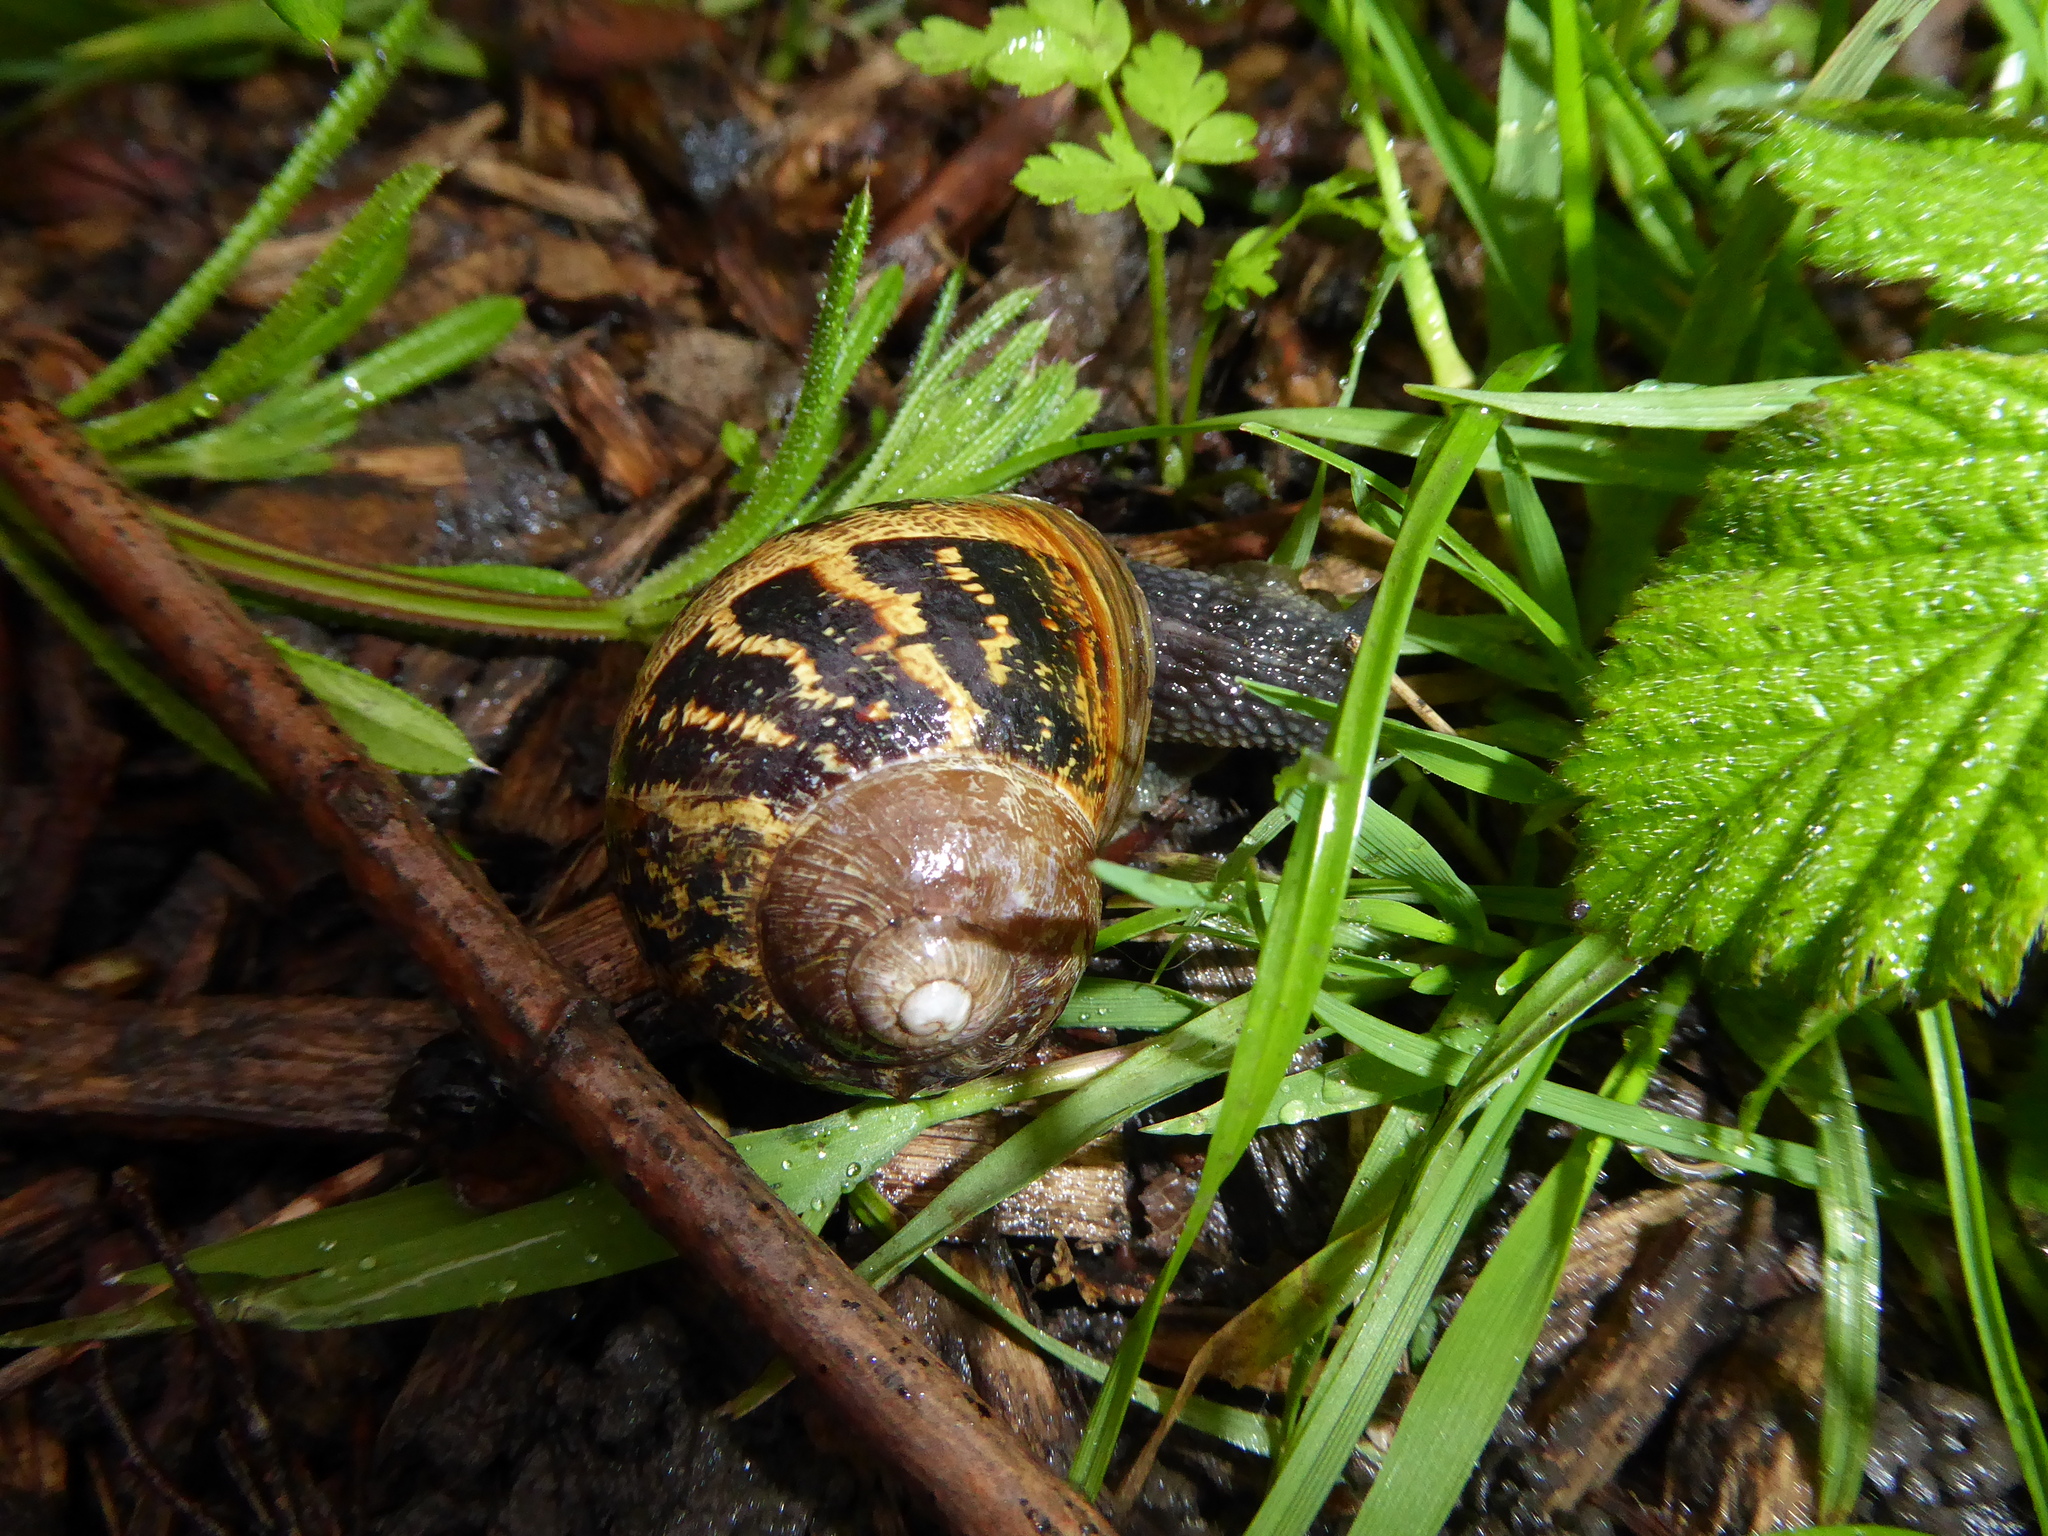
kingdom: Animalia
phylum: Mollusca
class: Gastropoda
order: Stylommatophora
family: Helicidae
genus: Cornu
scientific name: Cornu aspersum
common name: Brown garden snail
